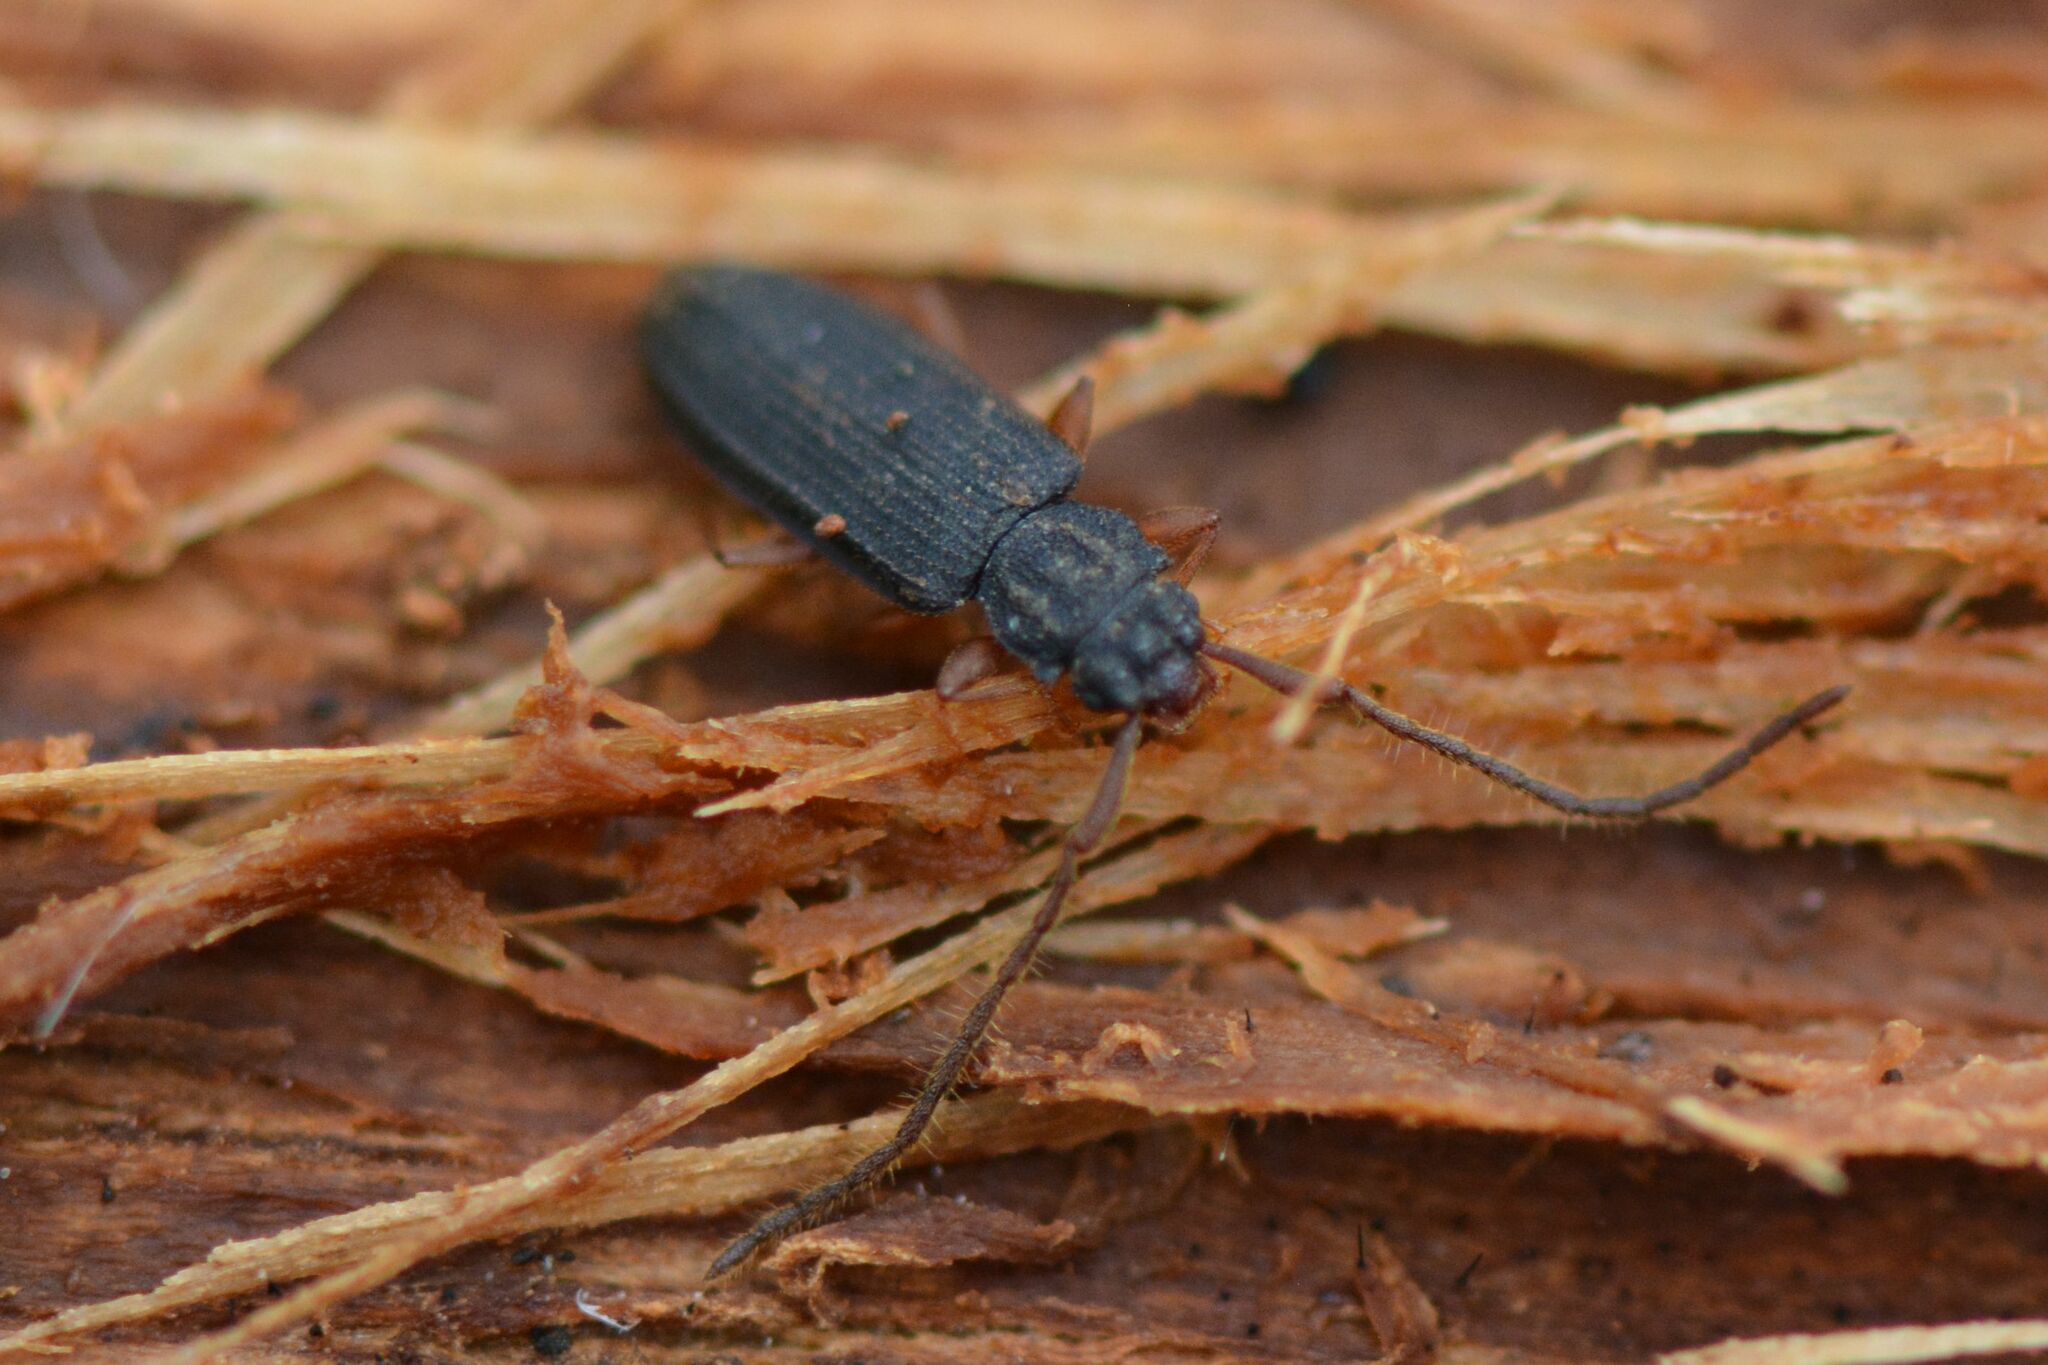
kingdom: Animalia
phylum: Arthropoda
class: Insecta
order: Coleoptera
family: Silvanidae
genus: Uleiota
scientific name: Uleiota planatus
